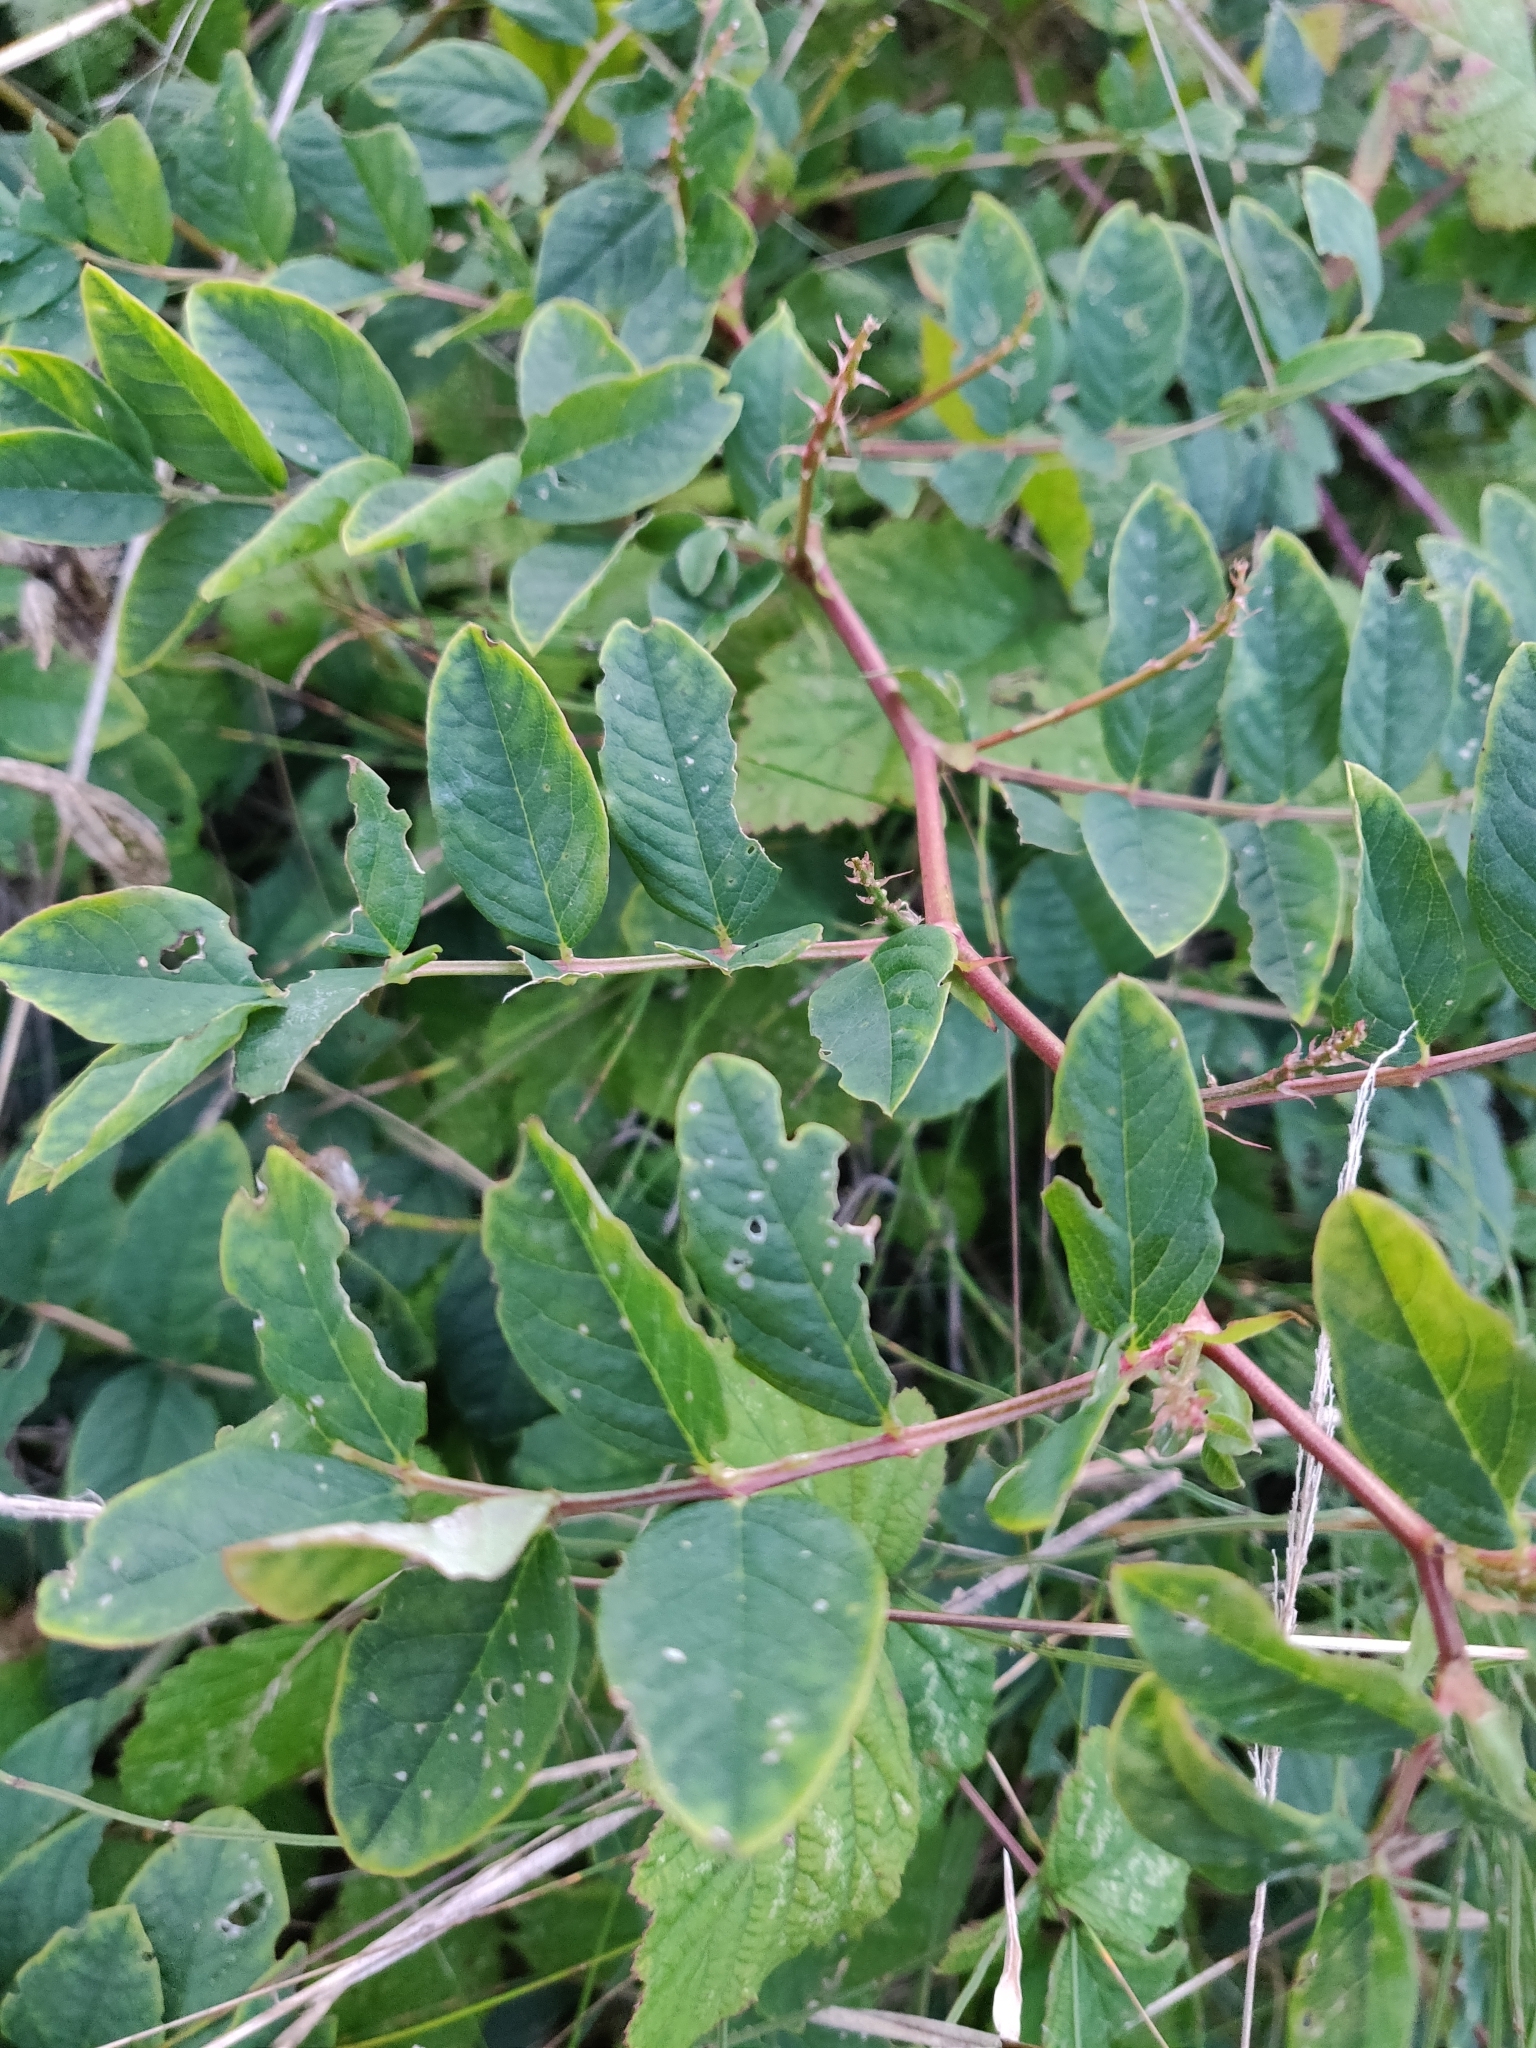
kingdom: Plantae
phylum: Tracheophyta
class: Magnoliopsida
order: Fabales
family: Fabaceae
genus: Astragalus
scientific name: Astragalus glycyphyllos
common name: Wild liquorice
